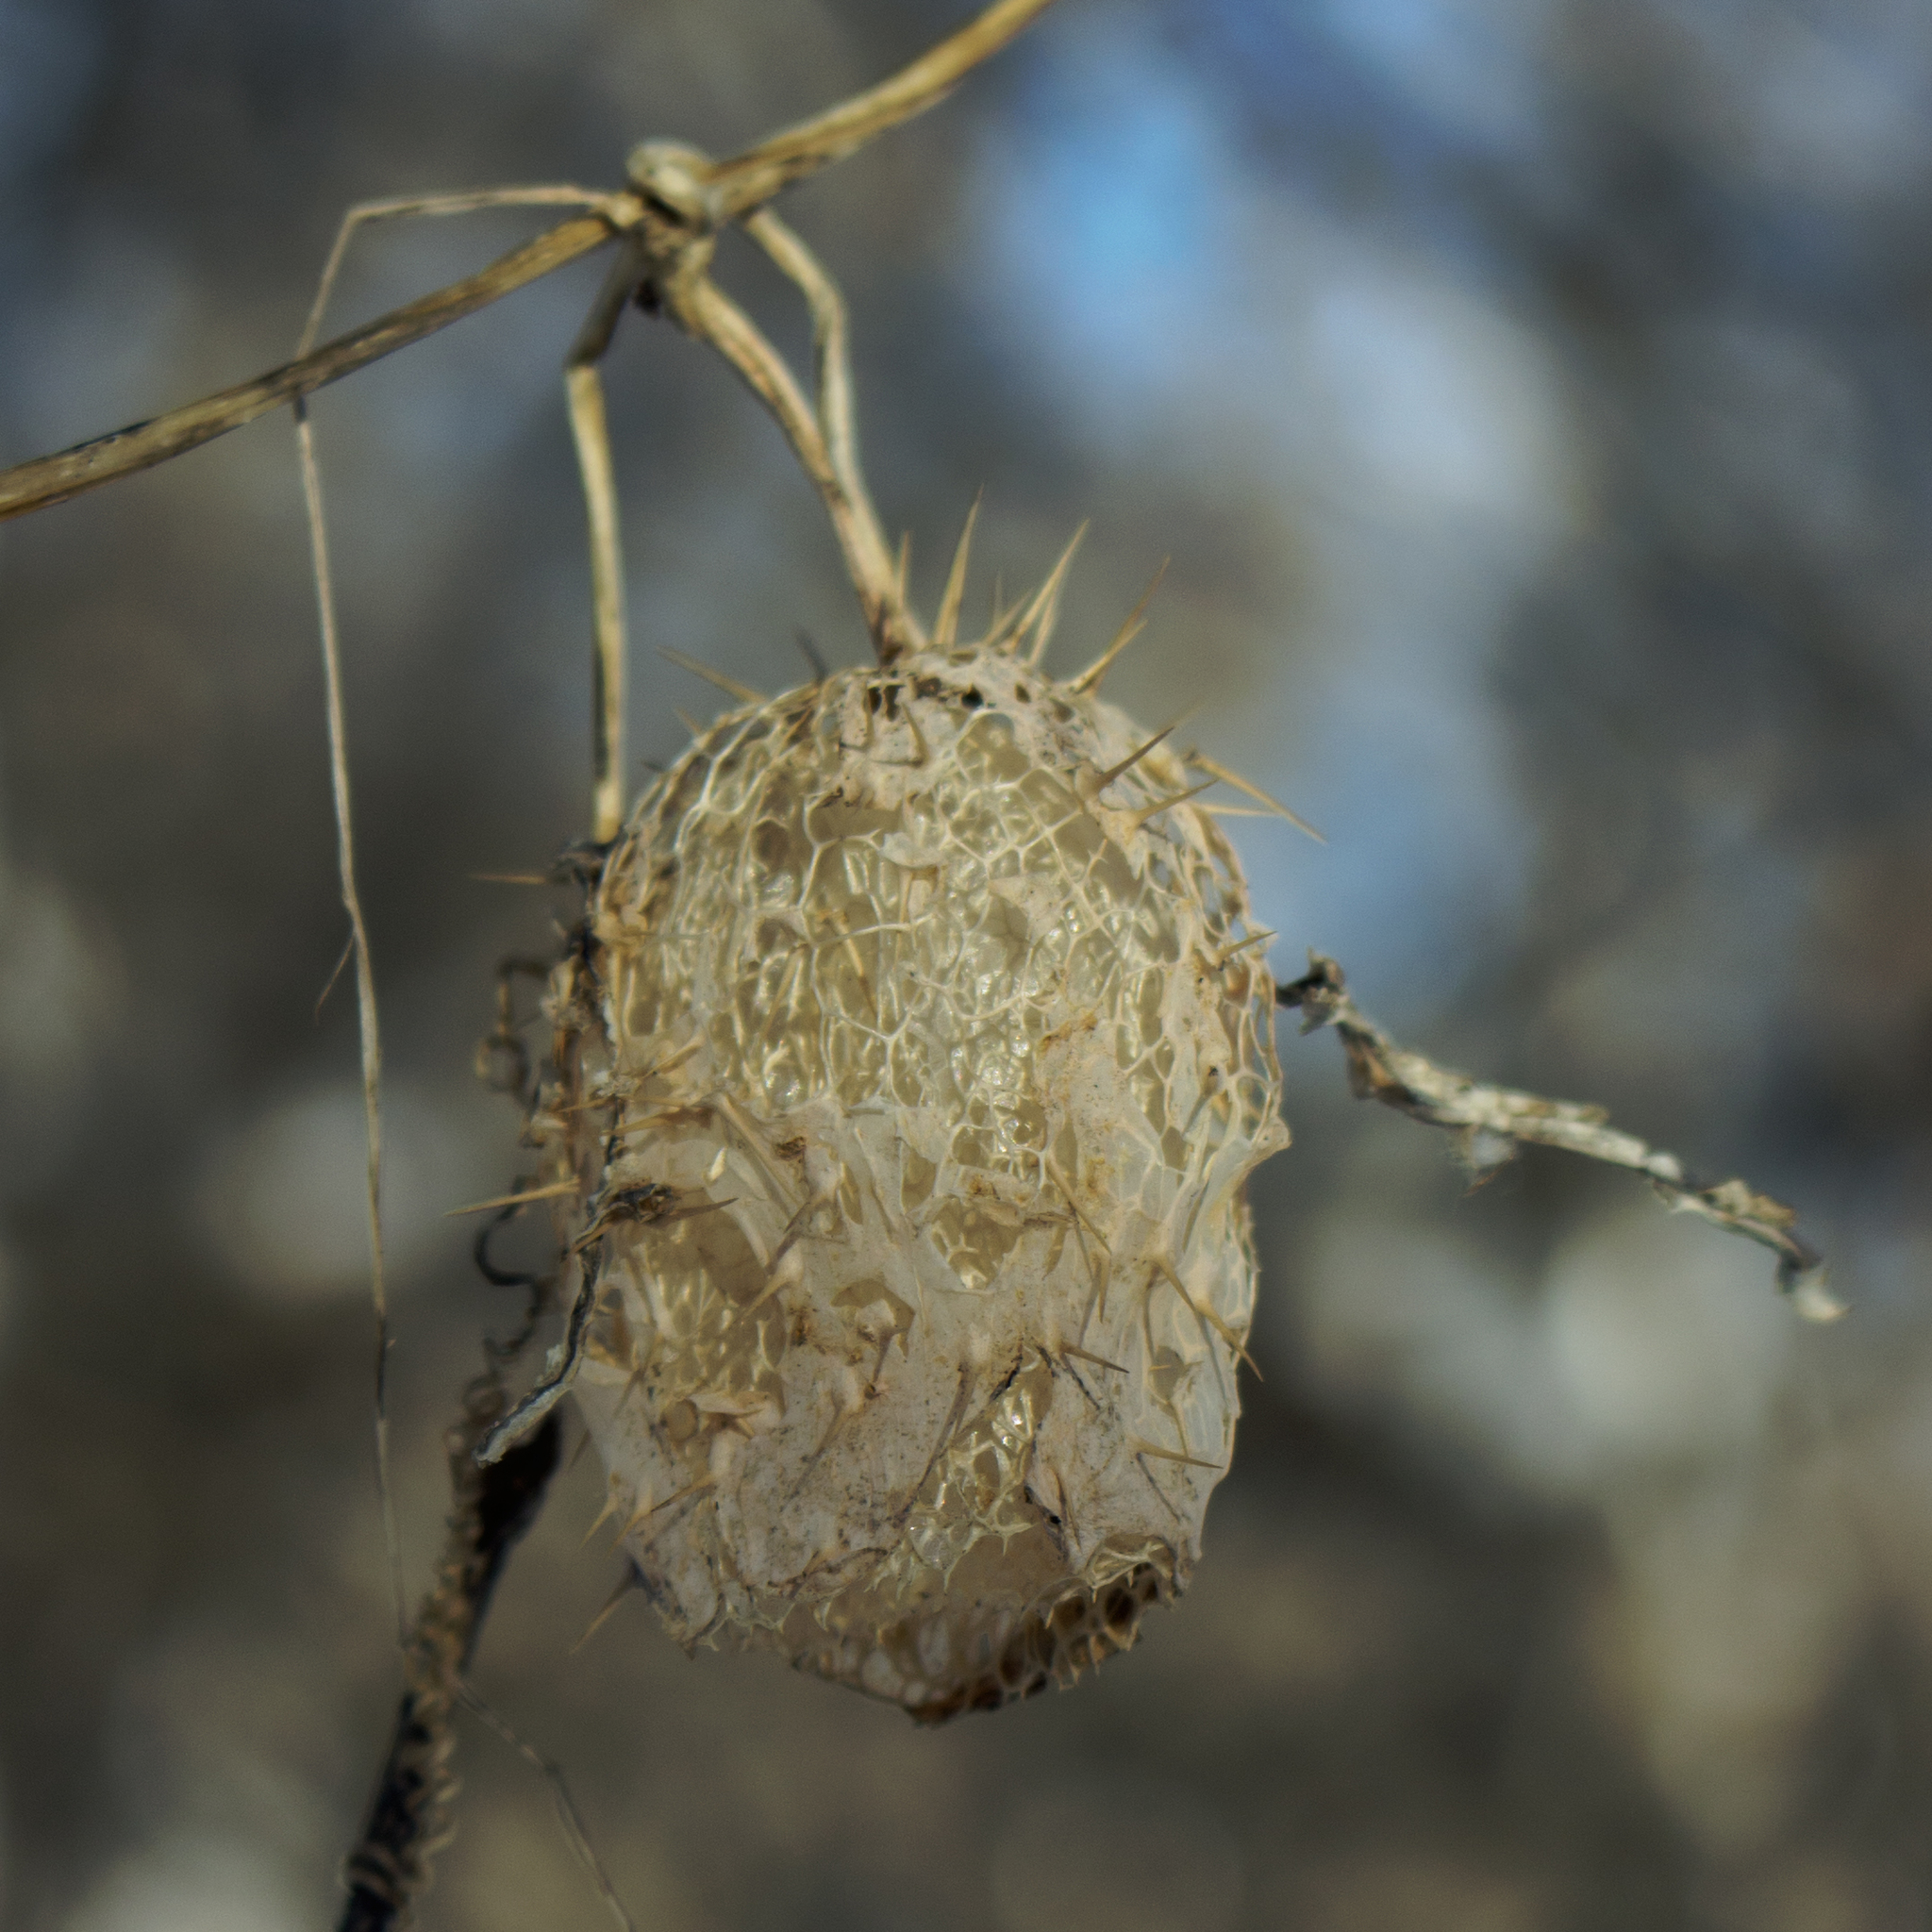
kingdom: Plantae
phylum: Tracheophyta
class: Magnoliopsida
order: Cucurbitales
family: Cucurbitaceae
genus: Echinocystis
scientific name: Echinocystis lobata
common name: Wild cucumber
